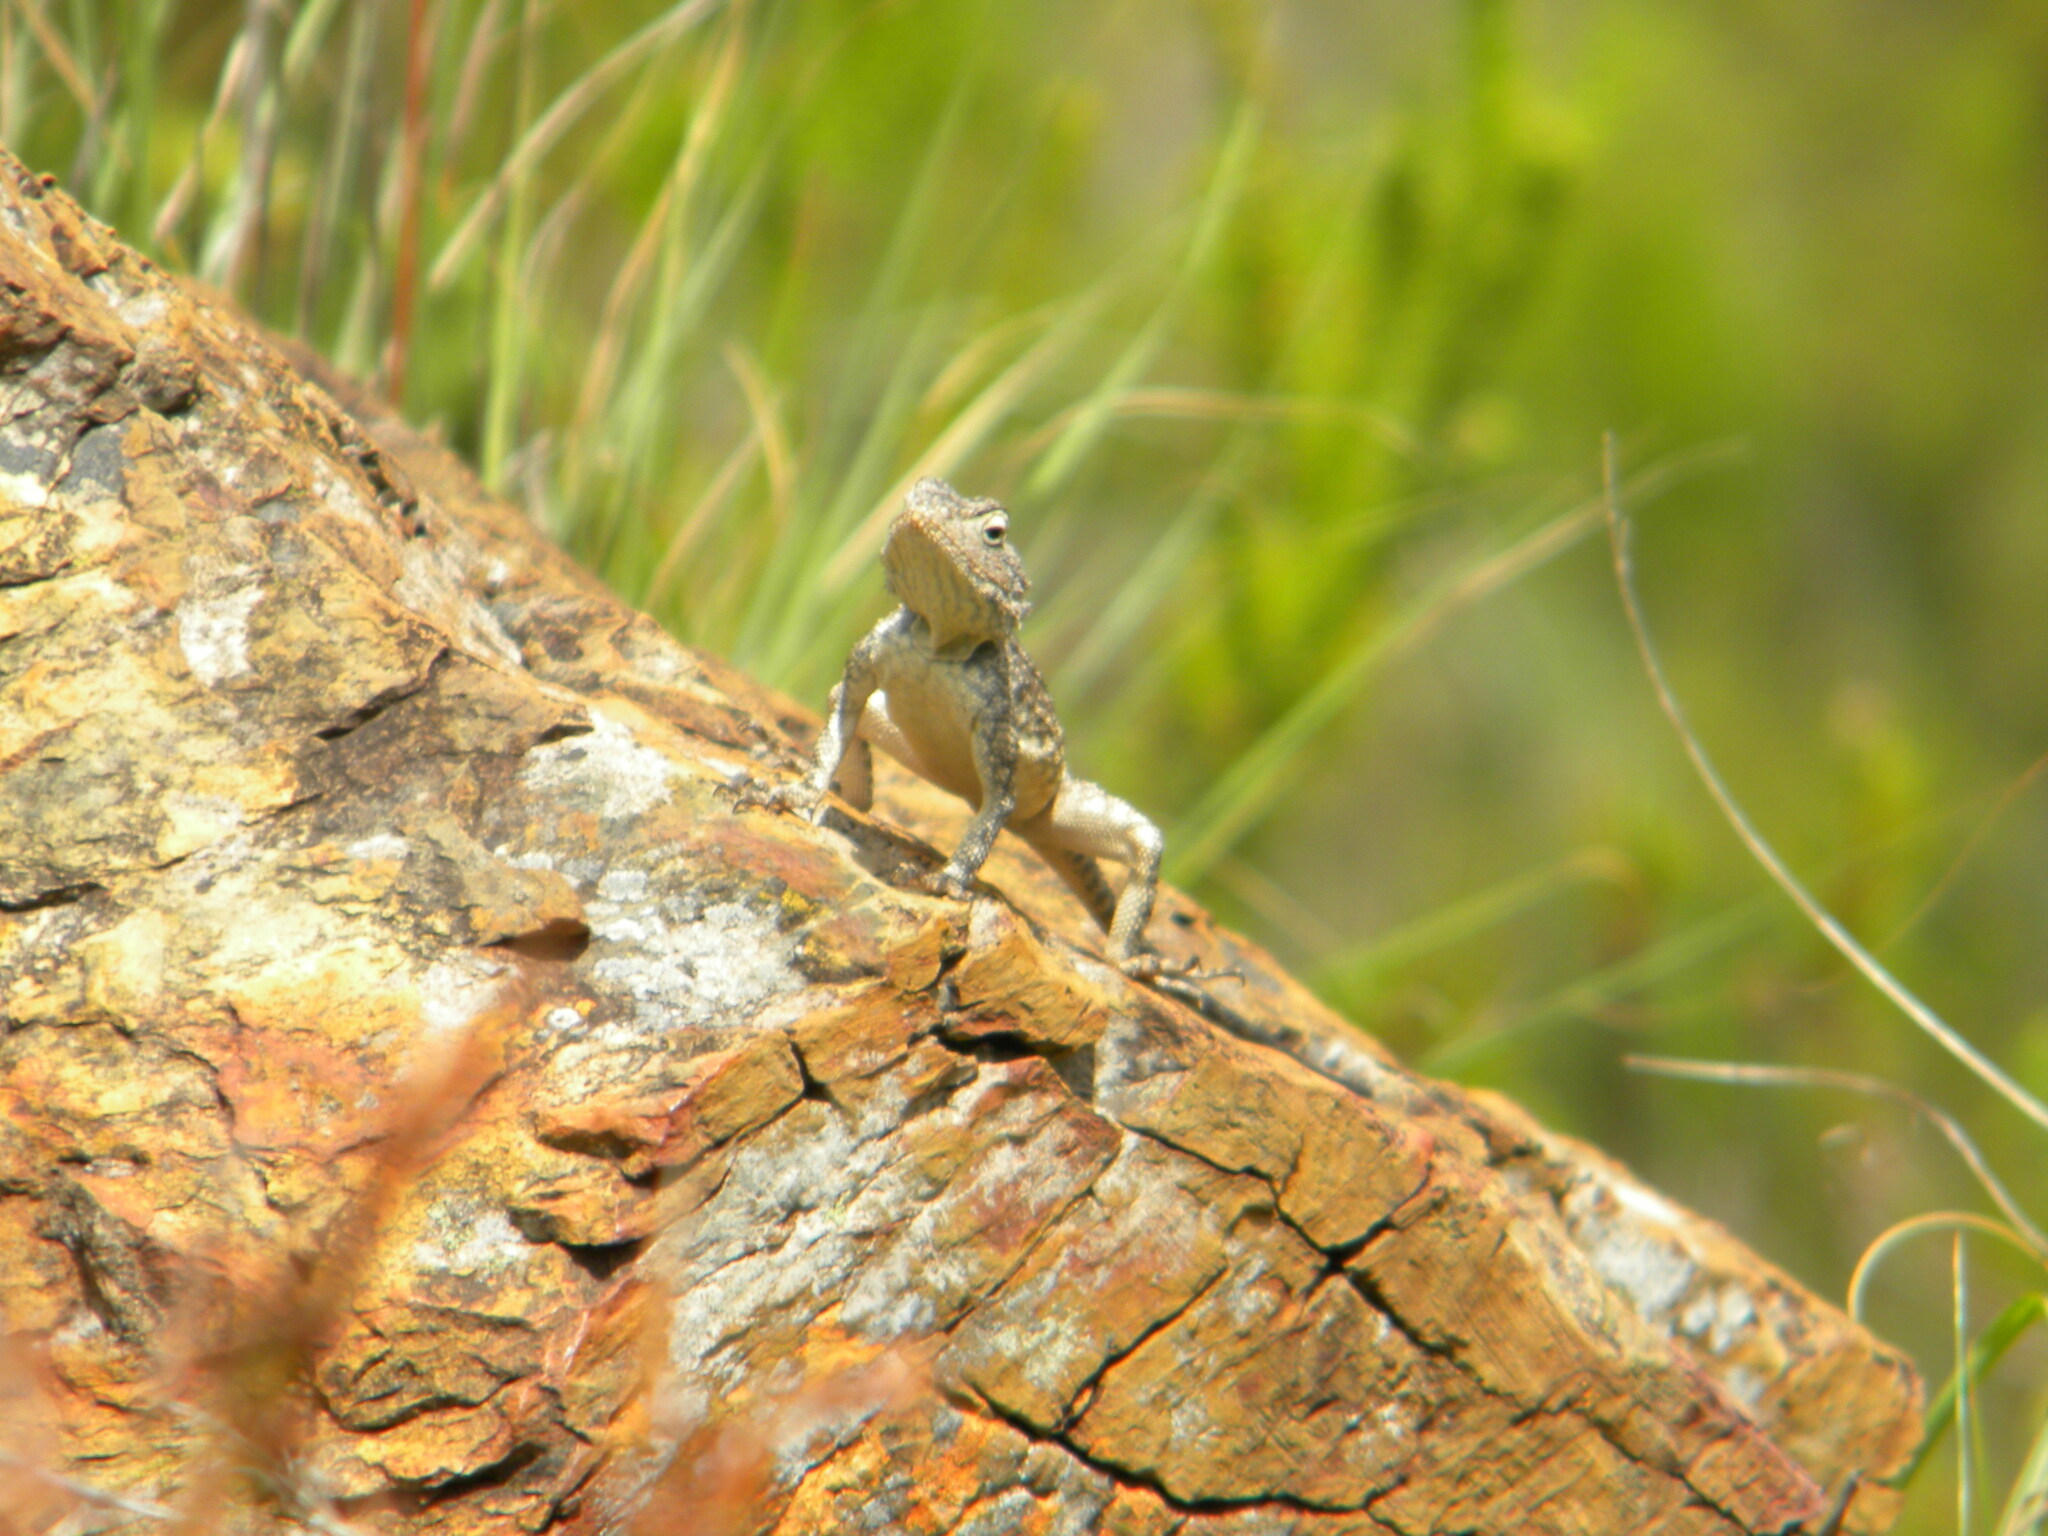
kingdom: Animalia
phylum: Chordata
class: Squamata
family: Agamidae
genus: Agama
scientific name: Agama atra
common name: Southern african rock agama
